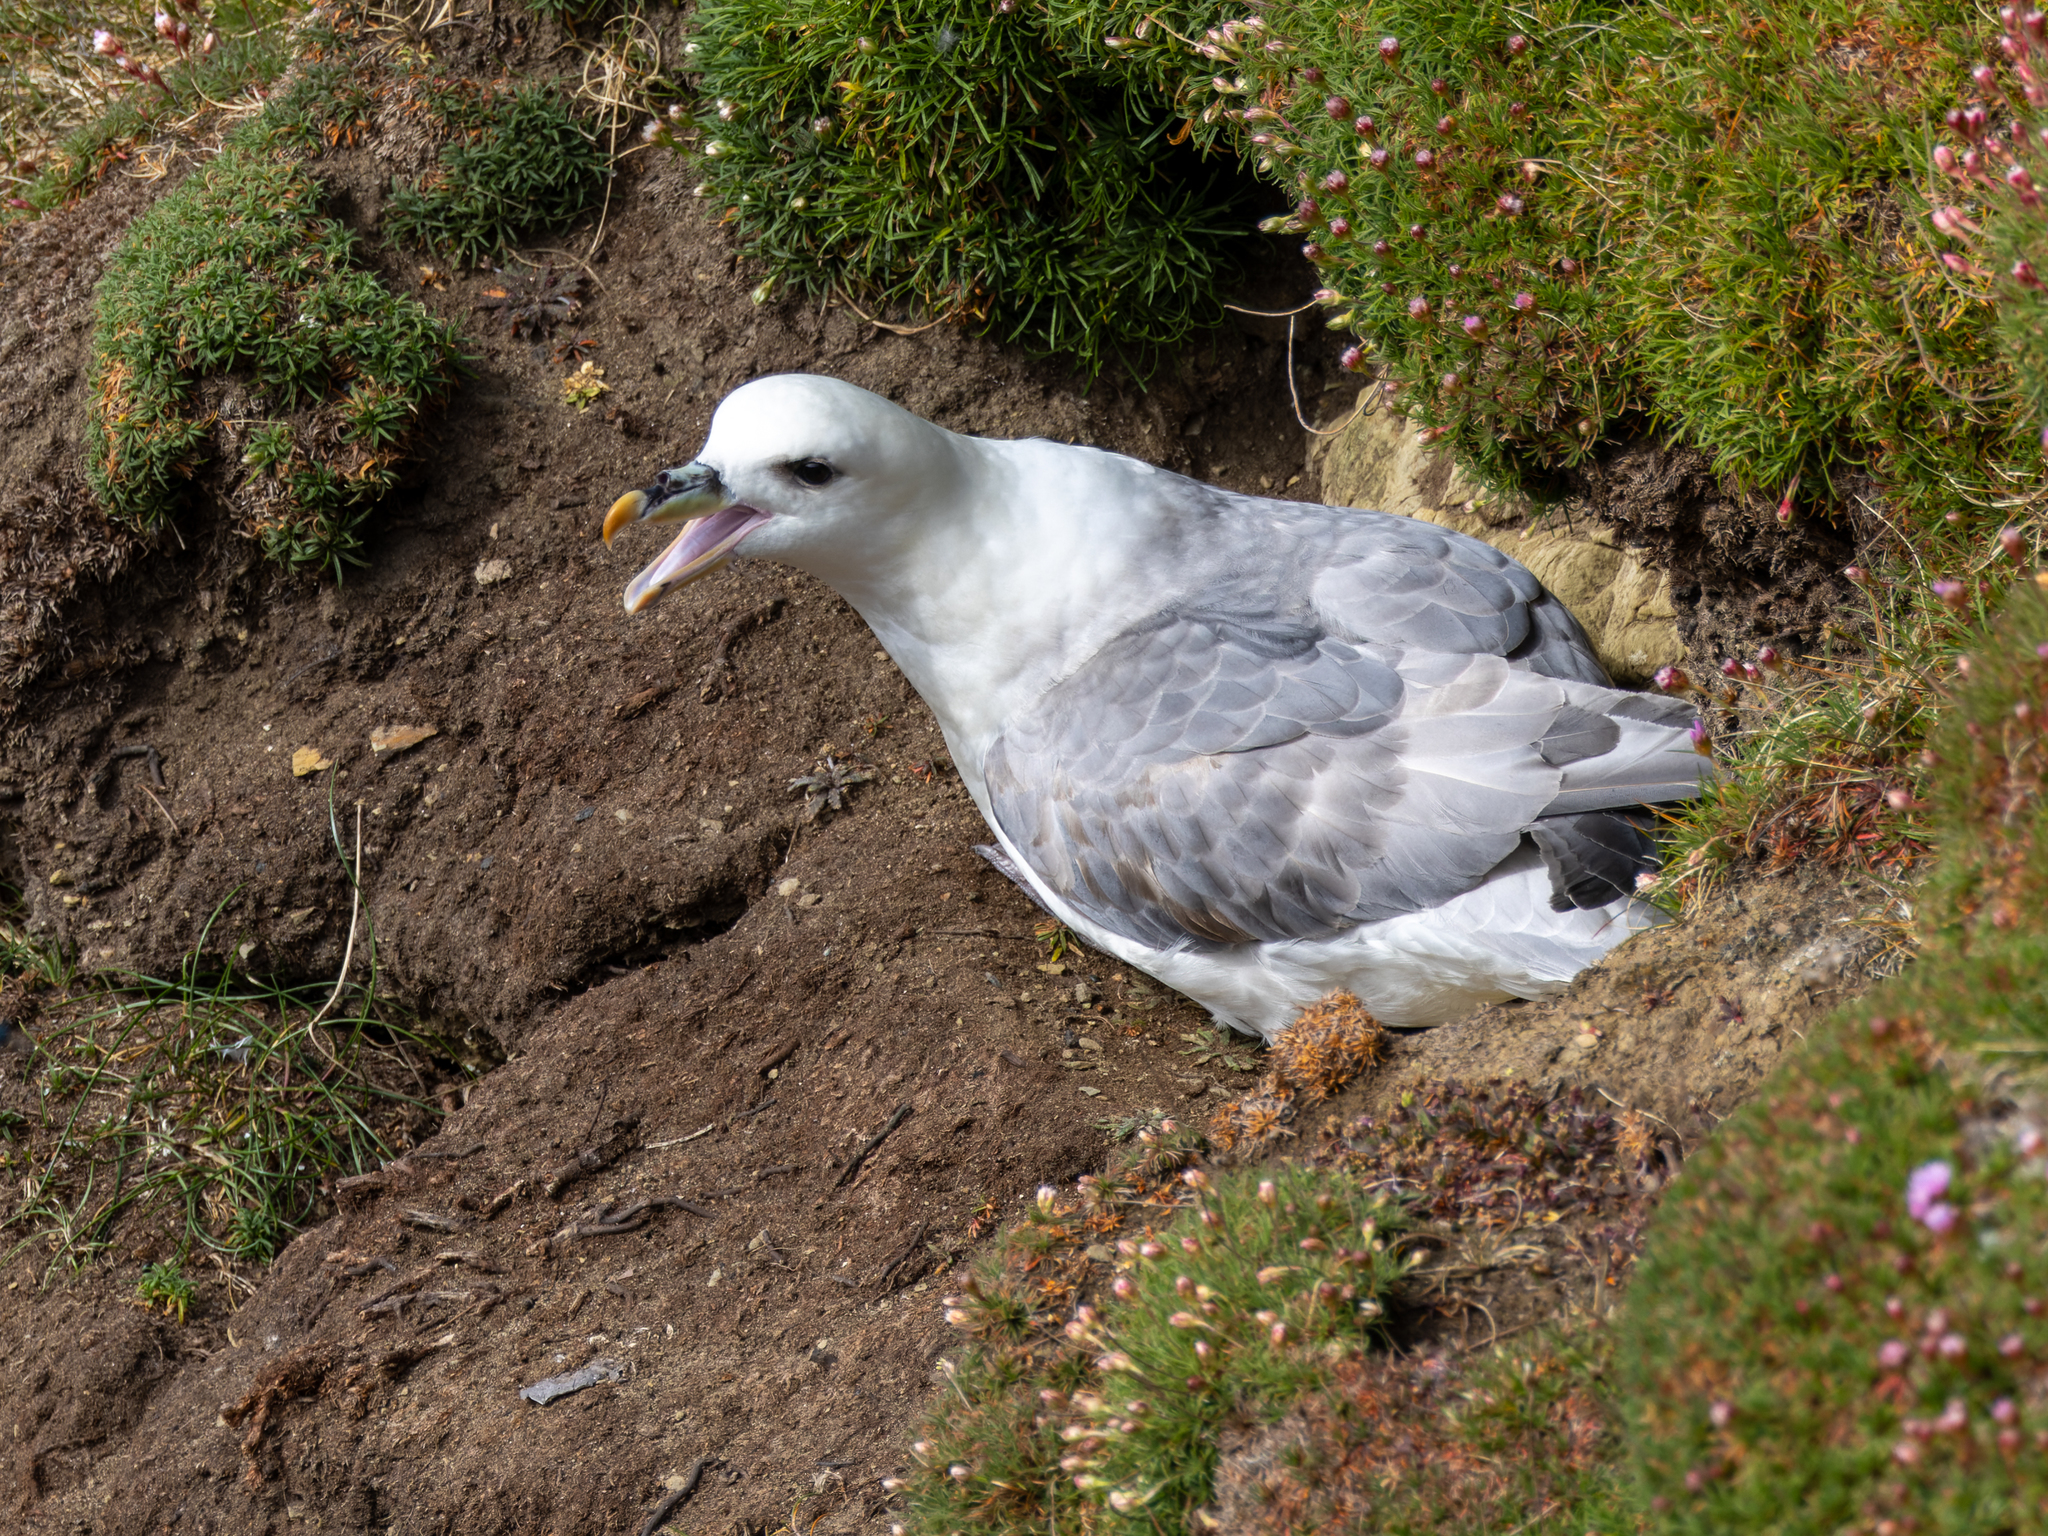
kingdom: Animalia
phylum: Chordata
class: Aves
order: Procellariiformes
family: Procellariidae
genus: Fulmarus
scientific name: Fulmarus glacialis
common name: Northern fulmar
